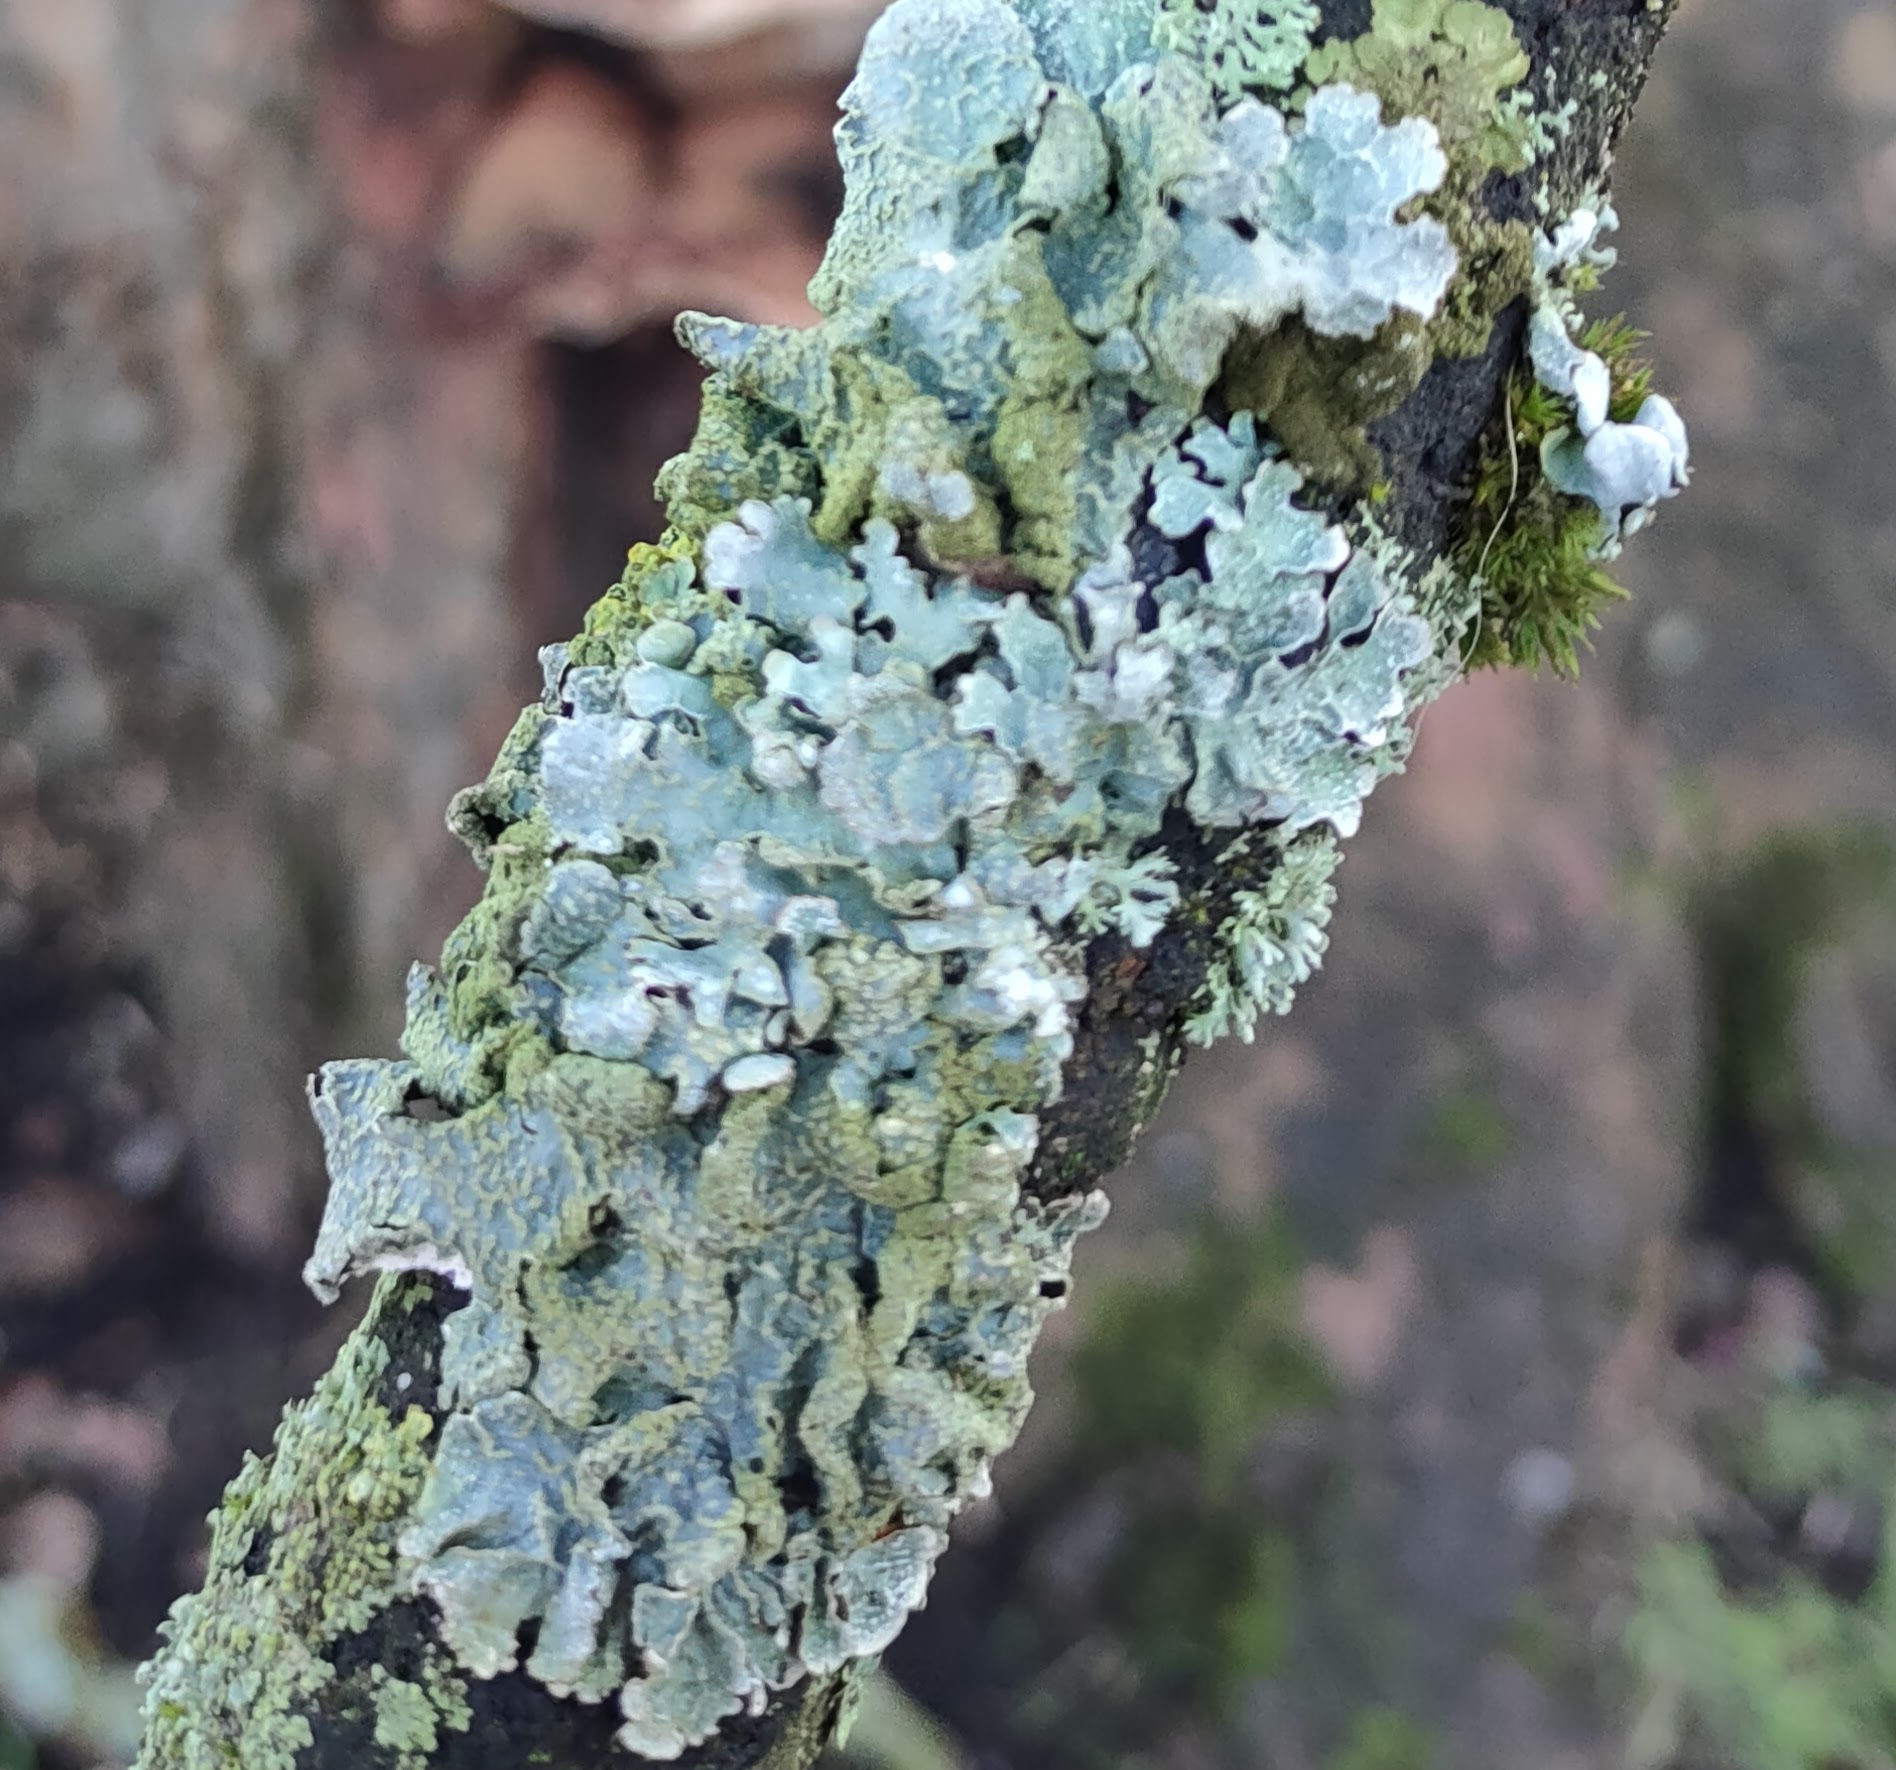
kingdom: Fungi
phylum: Ascomycota
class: Lecanoromycetes
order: Lecanorales
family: Parmeliaceae
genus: Parmelia
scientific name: Parmelia sulcata
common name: Netted shield lichen
